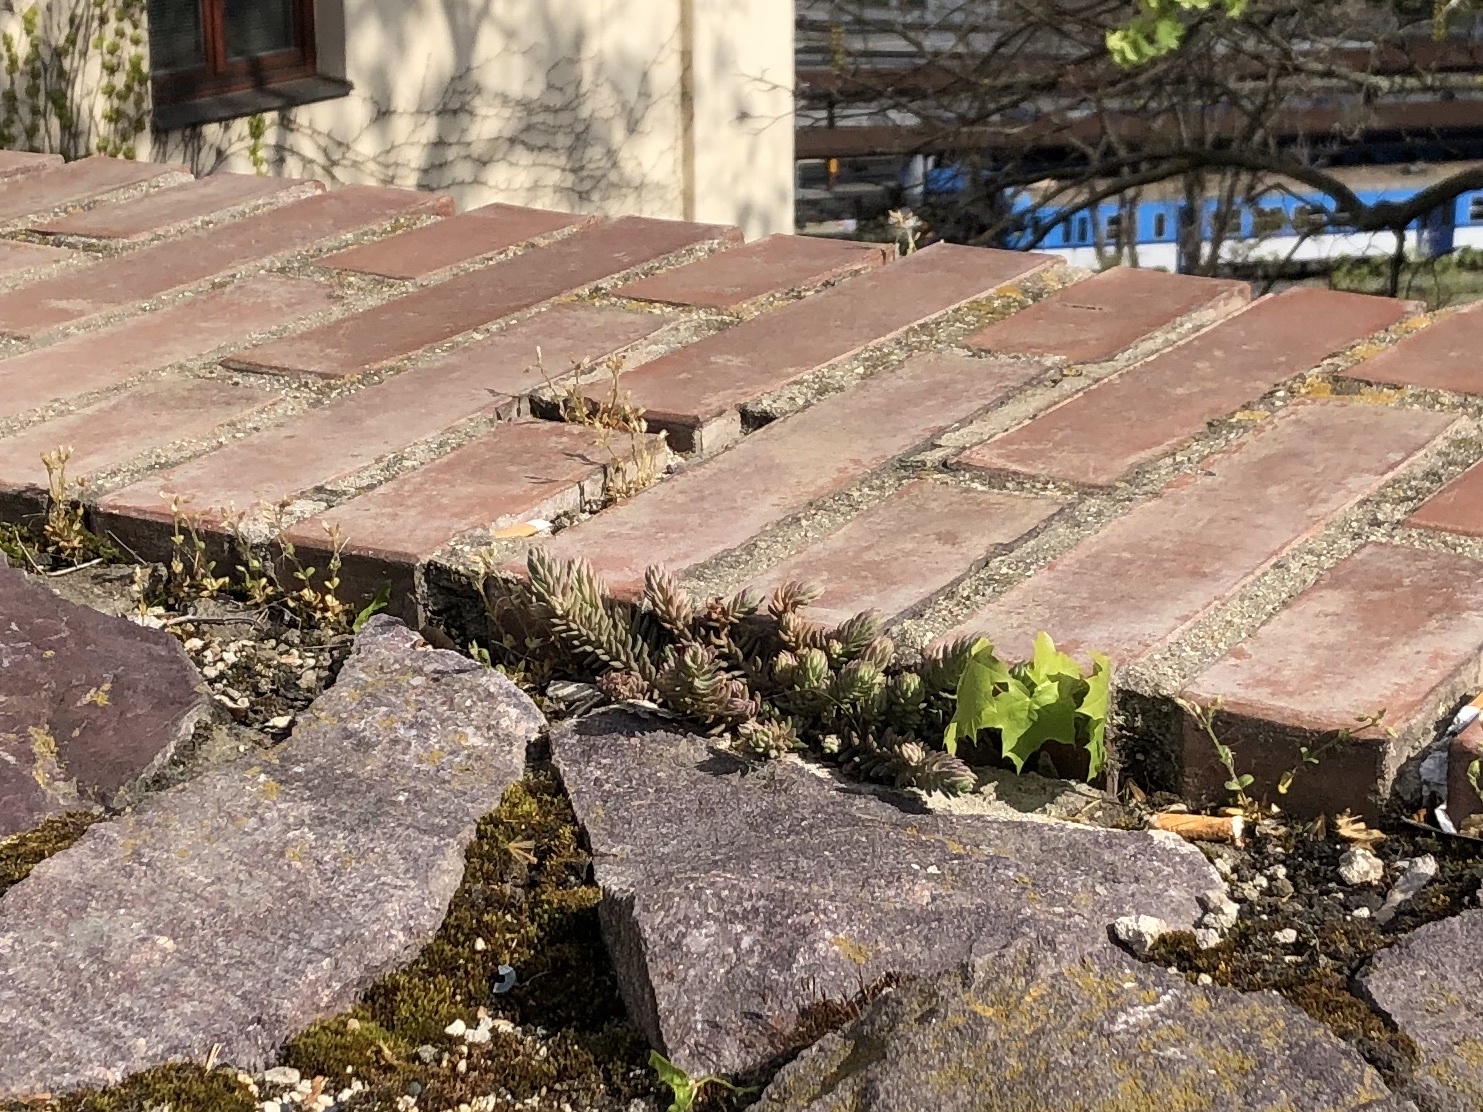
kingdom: Plantae
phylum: Tracheophyta
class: Magnoliopsida
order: Saxifragales
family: Crassulaceae
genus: Petrosedum
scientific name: Petrosedum
